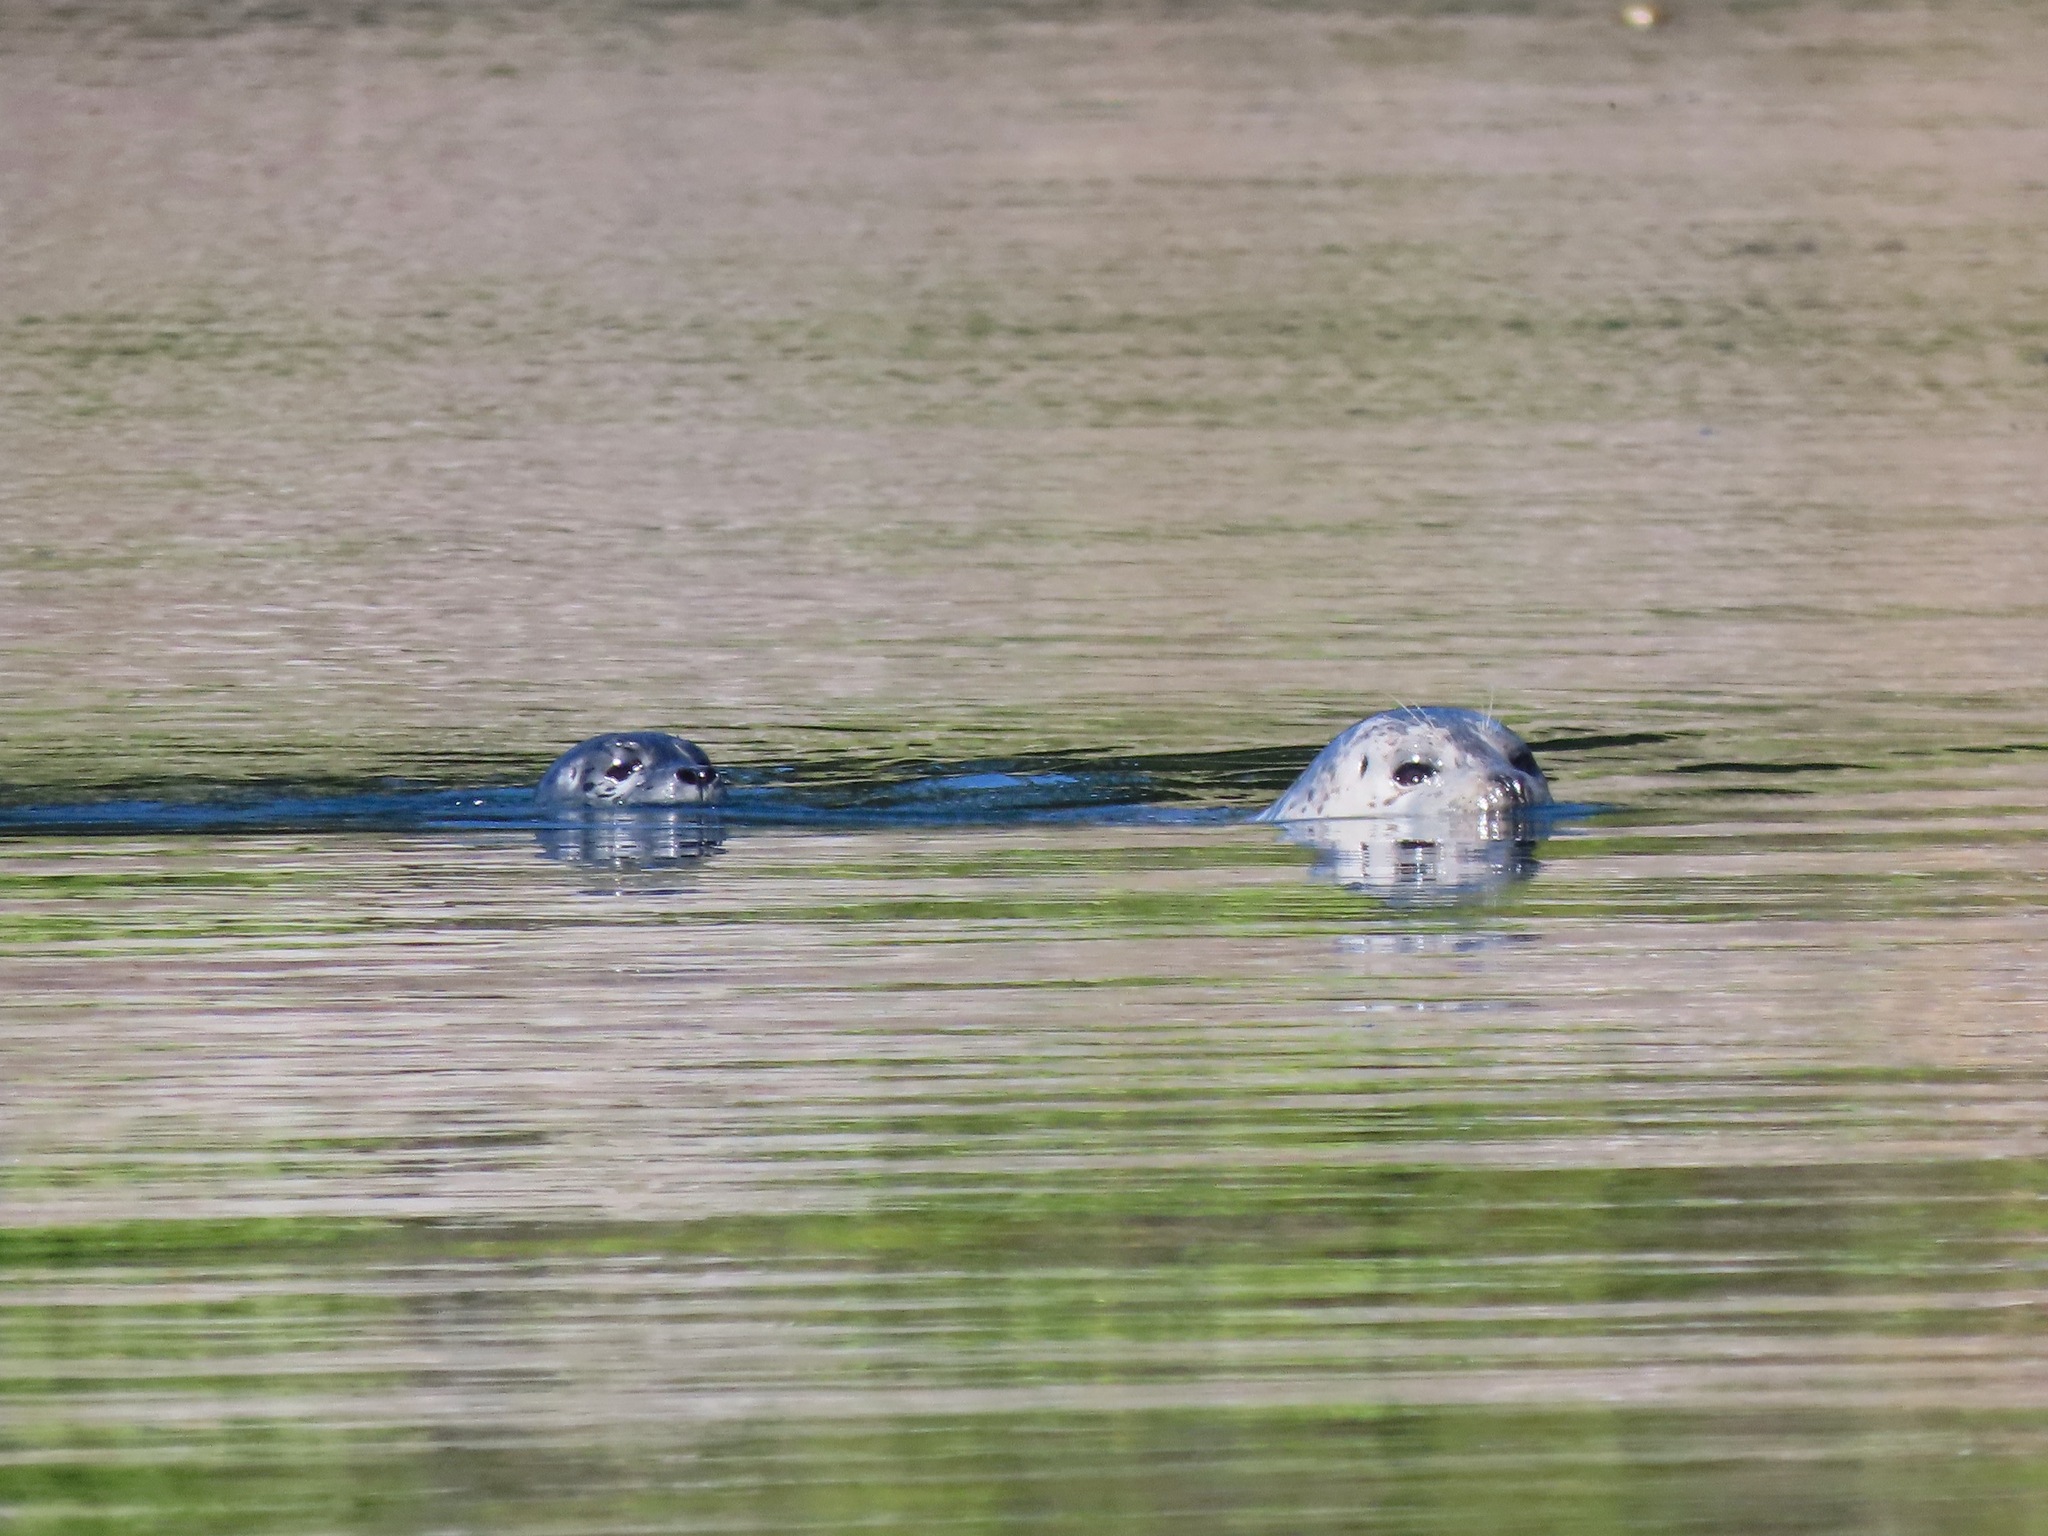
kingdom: Animalia
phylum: Chordata
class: Mammalia
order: Carnivora
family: Phocidae
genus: Phoca
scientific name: Phoca vitulina
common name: Harbor seal
